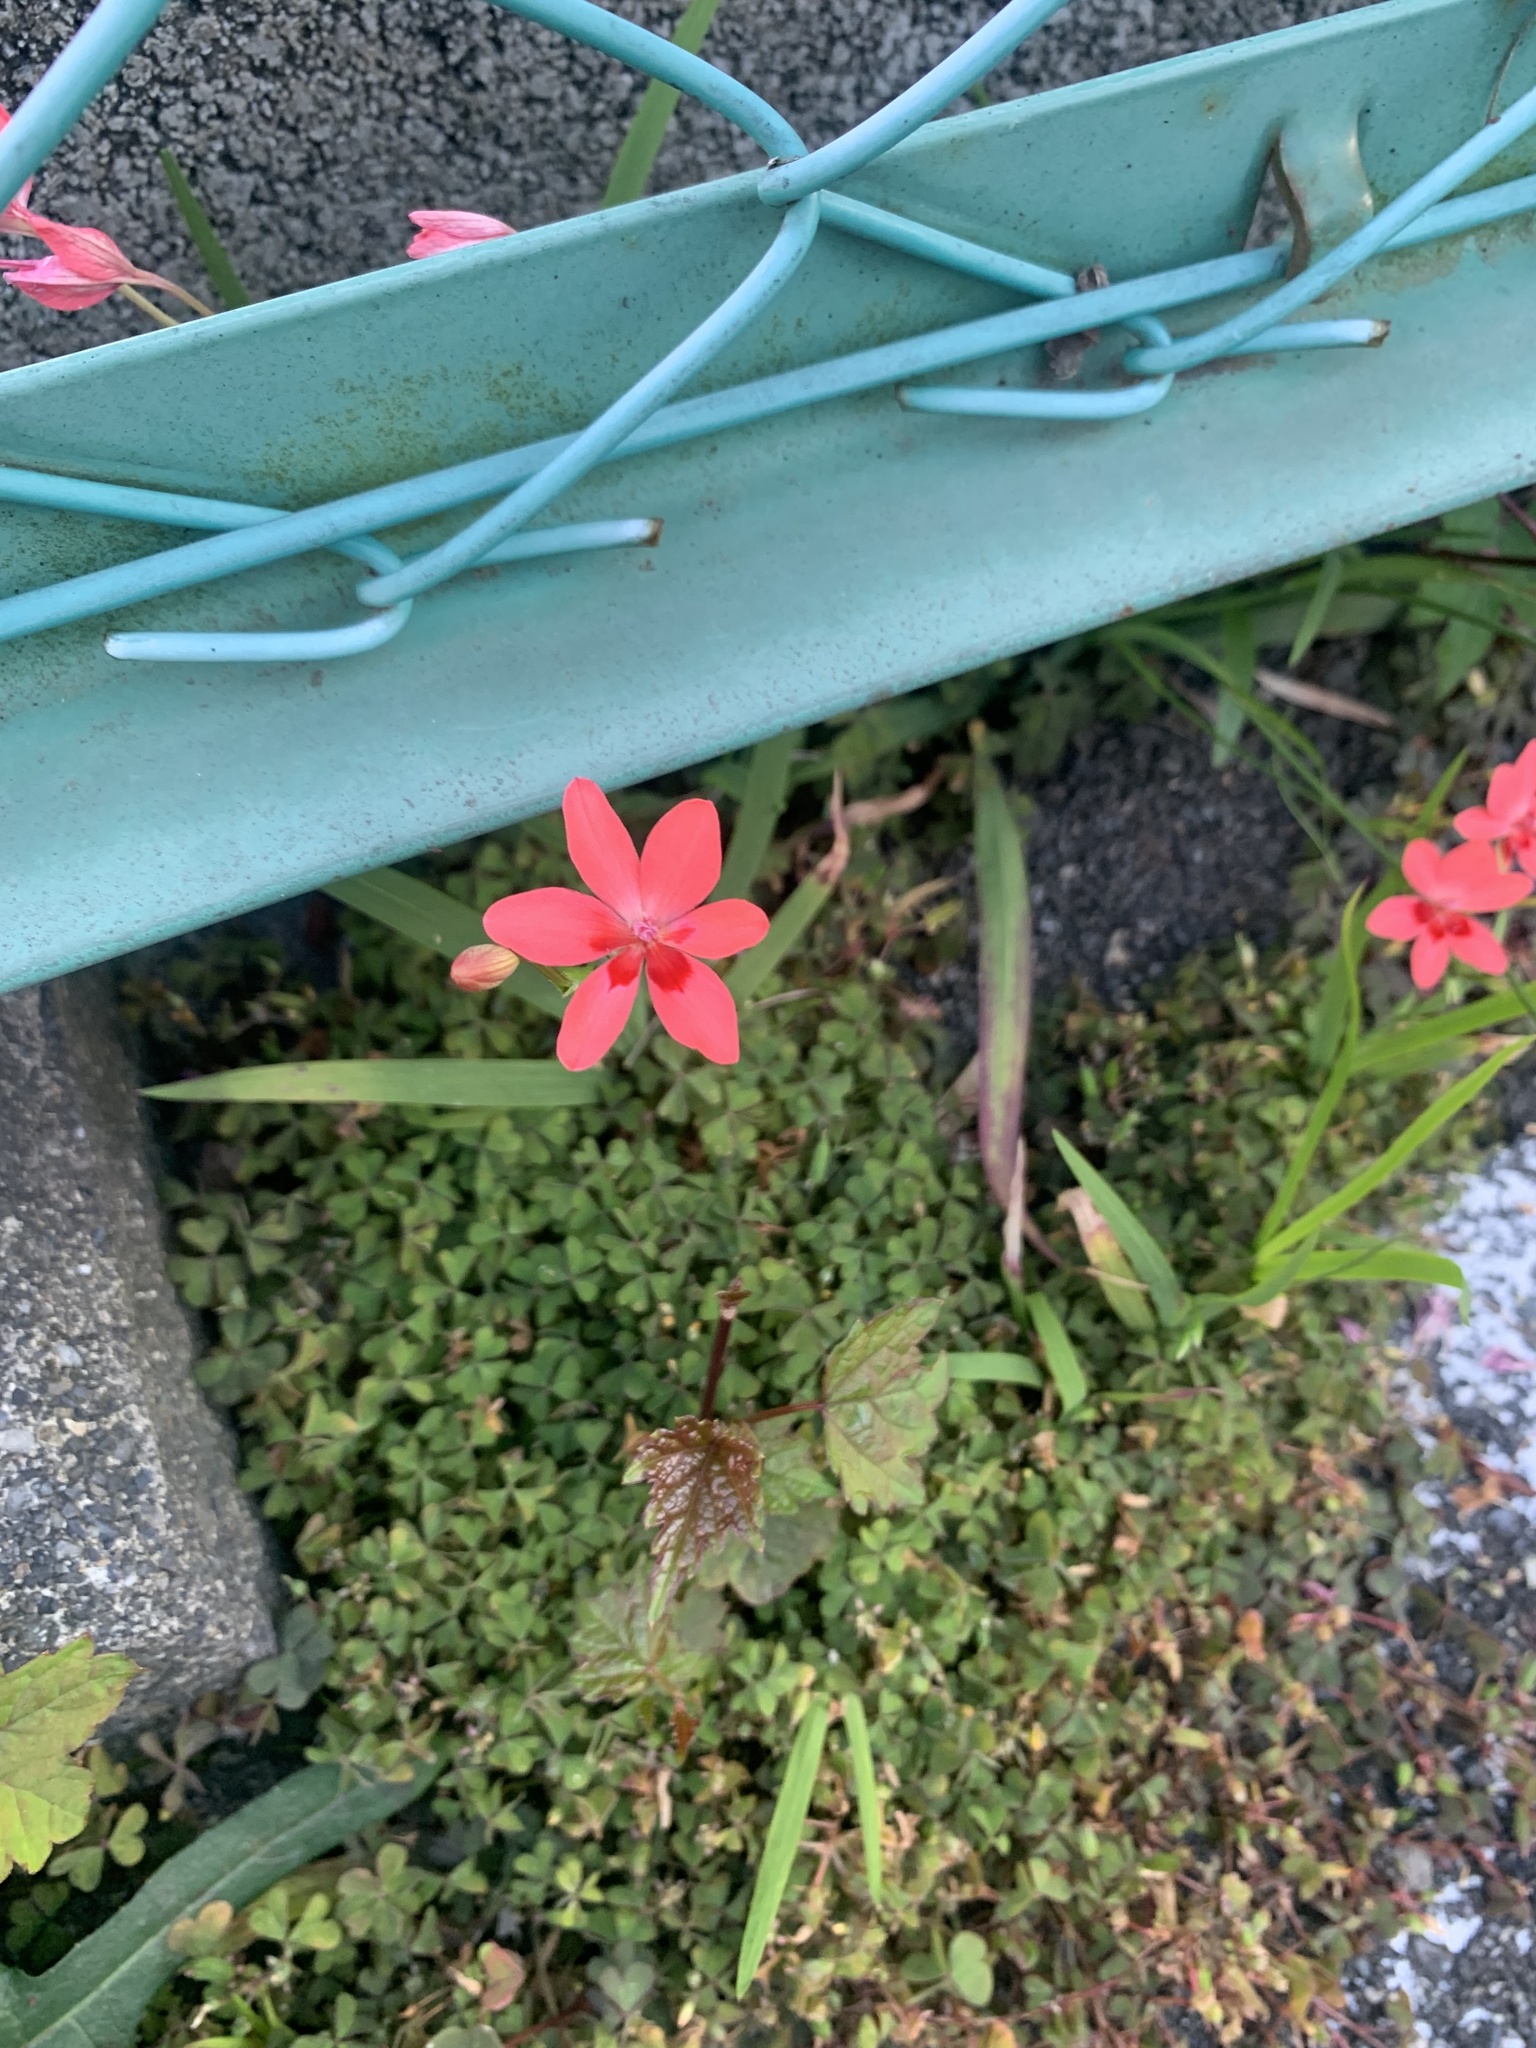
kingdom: Plantae
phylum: Tracheophyta
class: Liliopsida
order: Asparagales
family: Iridaceae
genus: Freesia
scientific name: Freesia laxa
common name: False freesia
